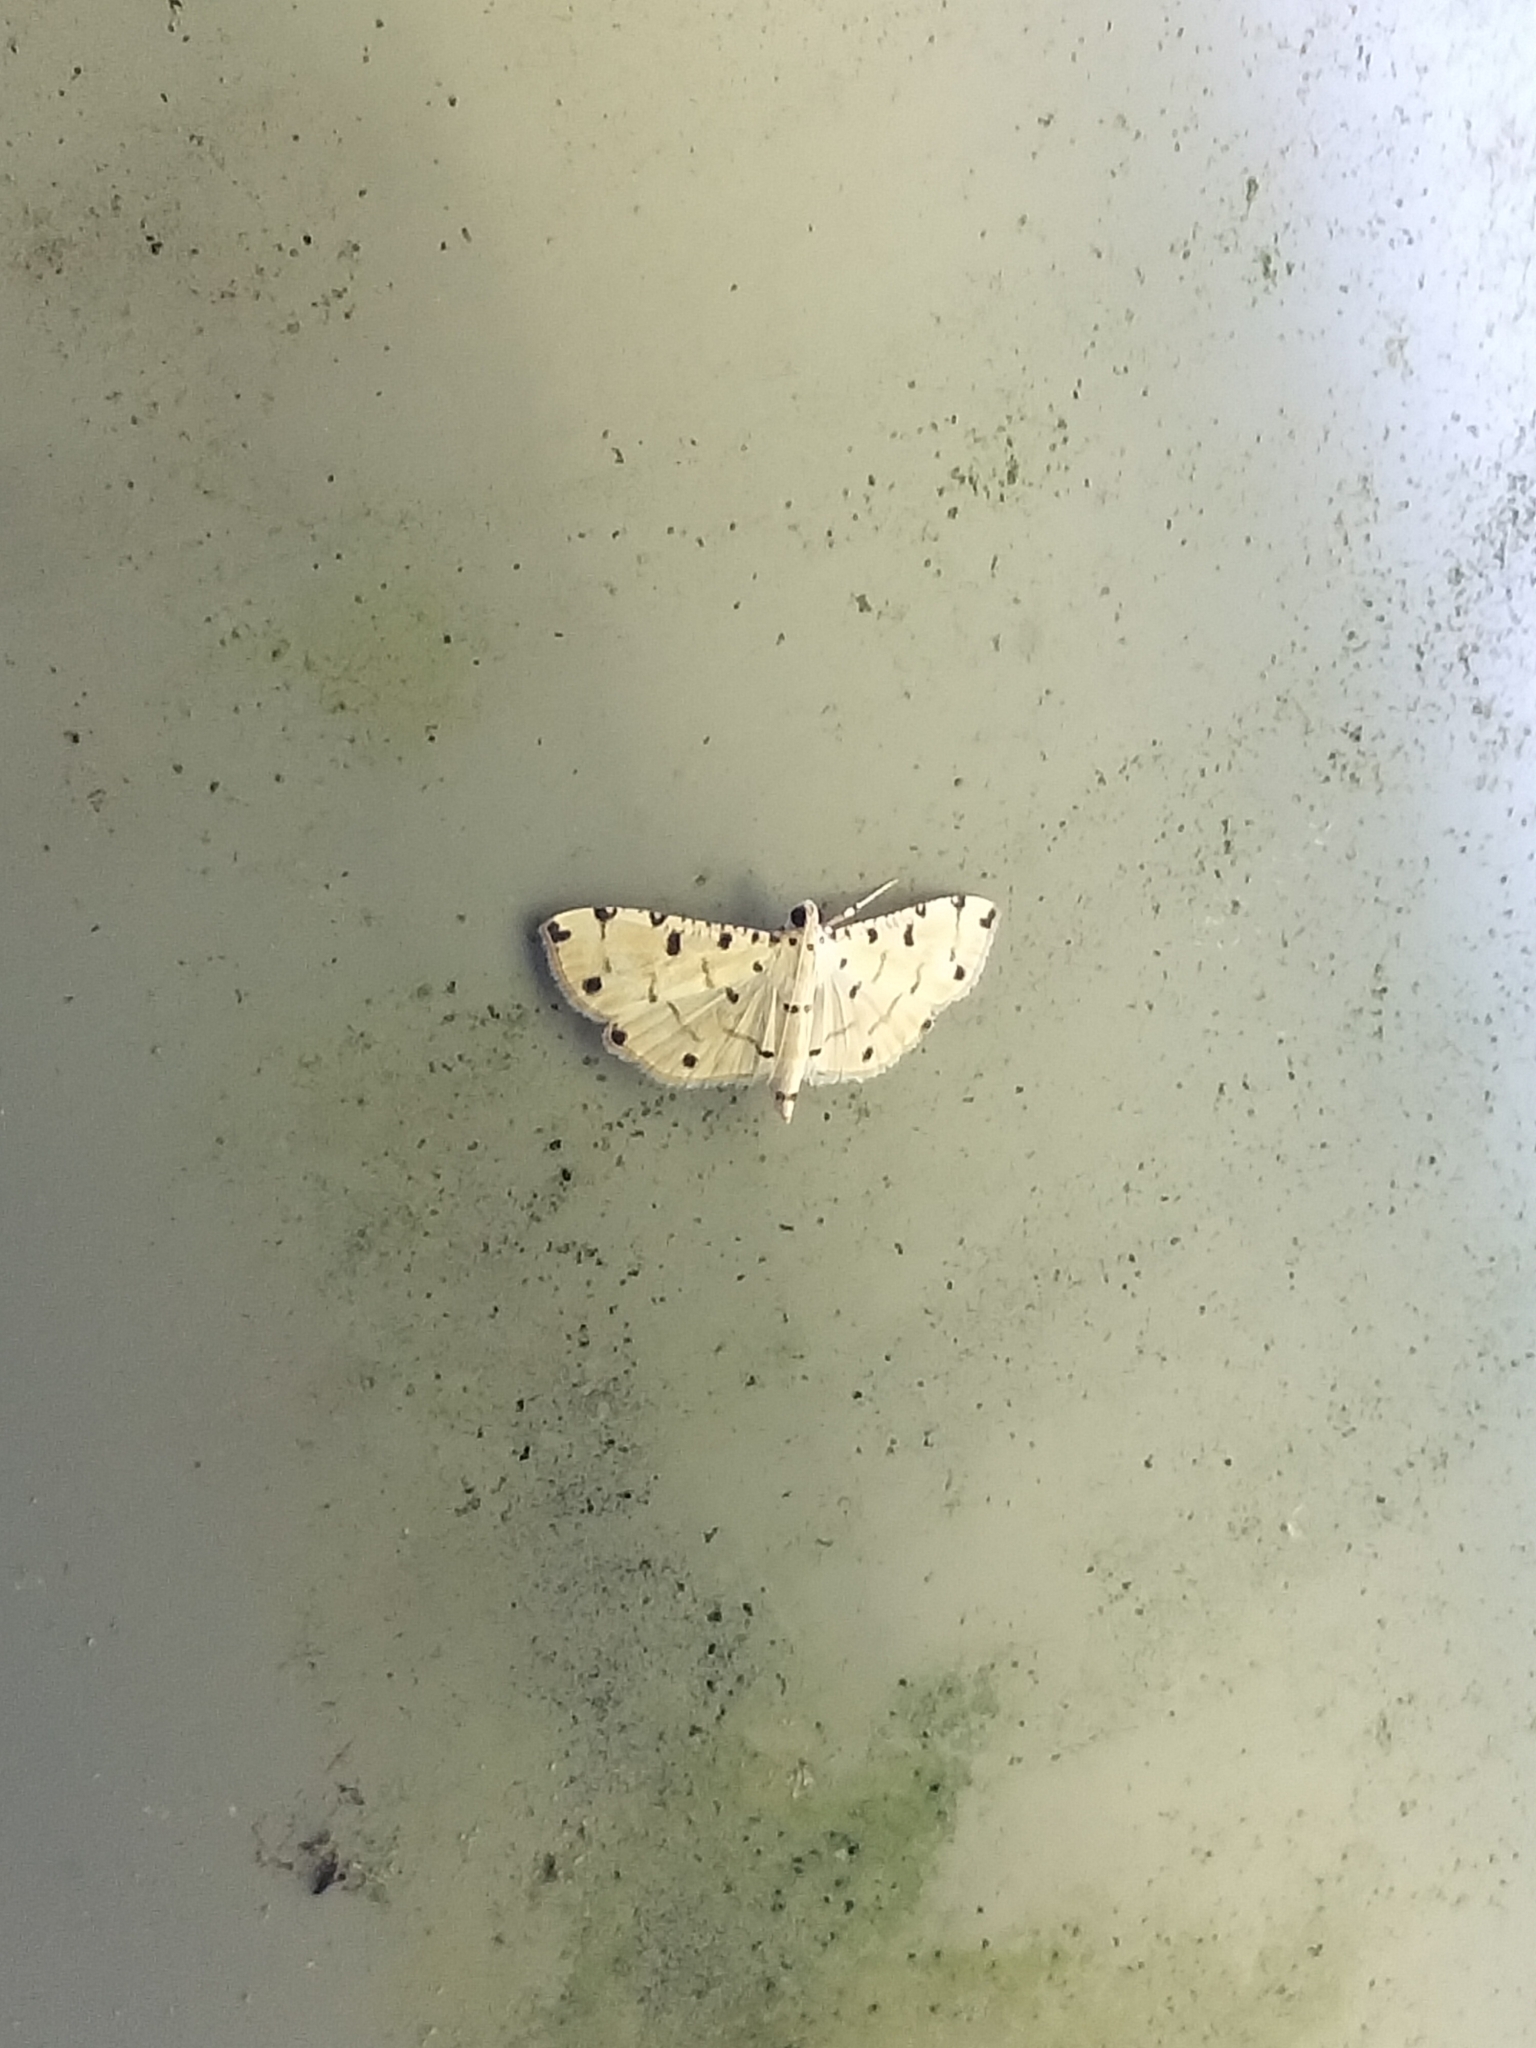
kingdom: Animalia
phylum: Arthropoda
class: Insecta
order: Lepidoptera
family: Crambidae
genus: Pycnarmon
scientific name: Pycnarmon cribrata
